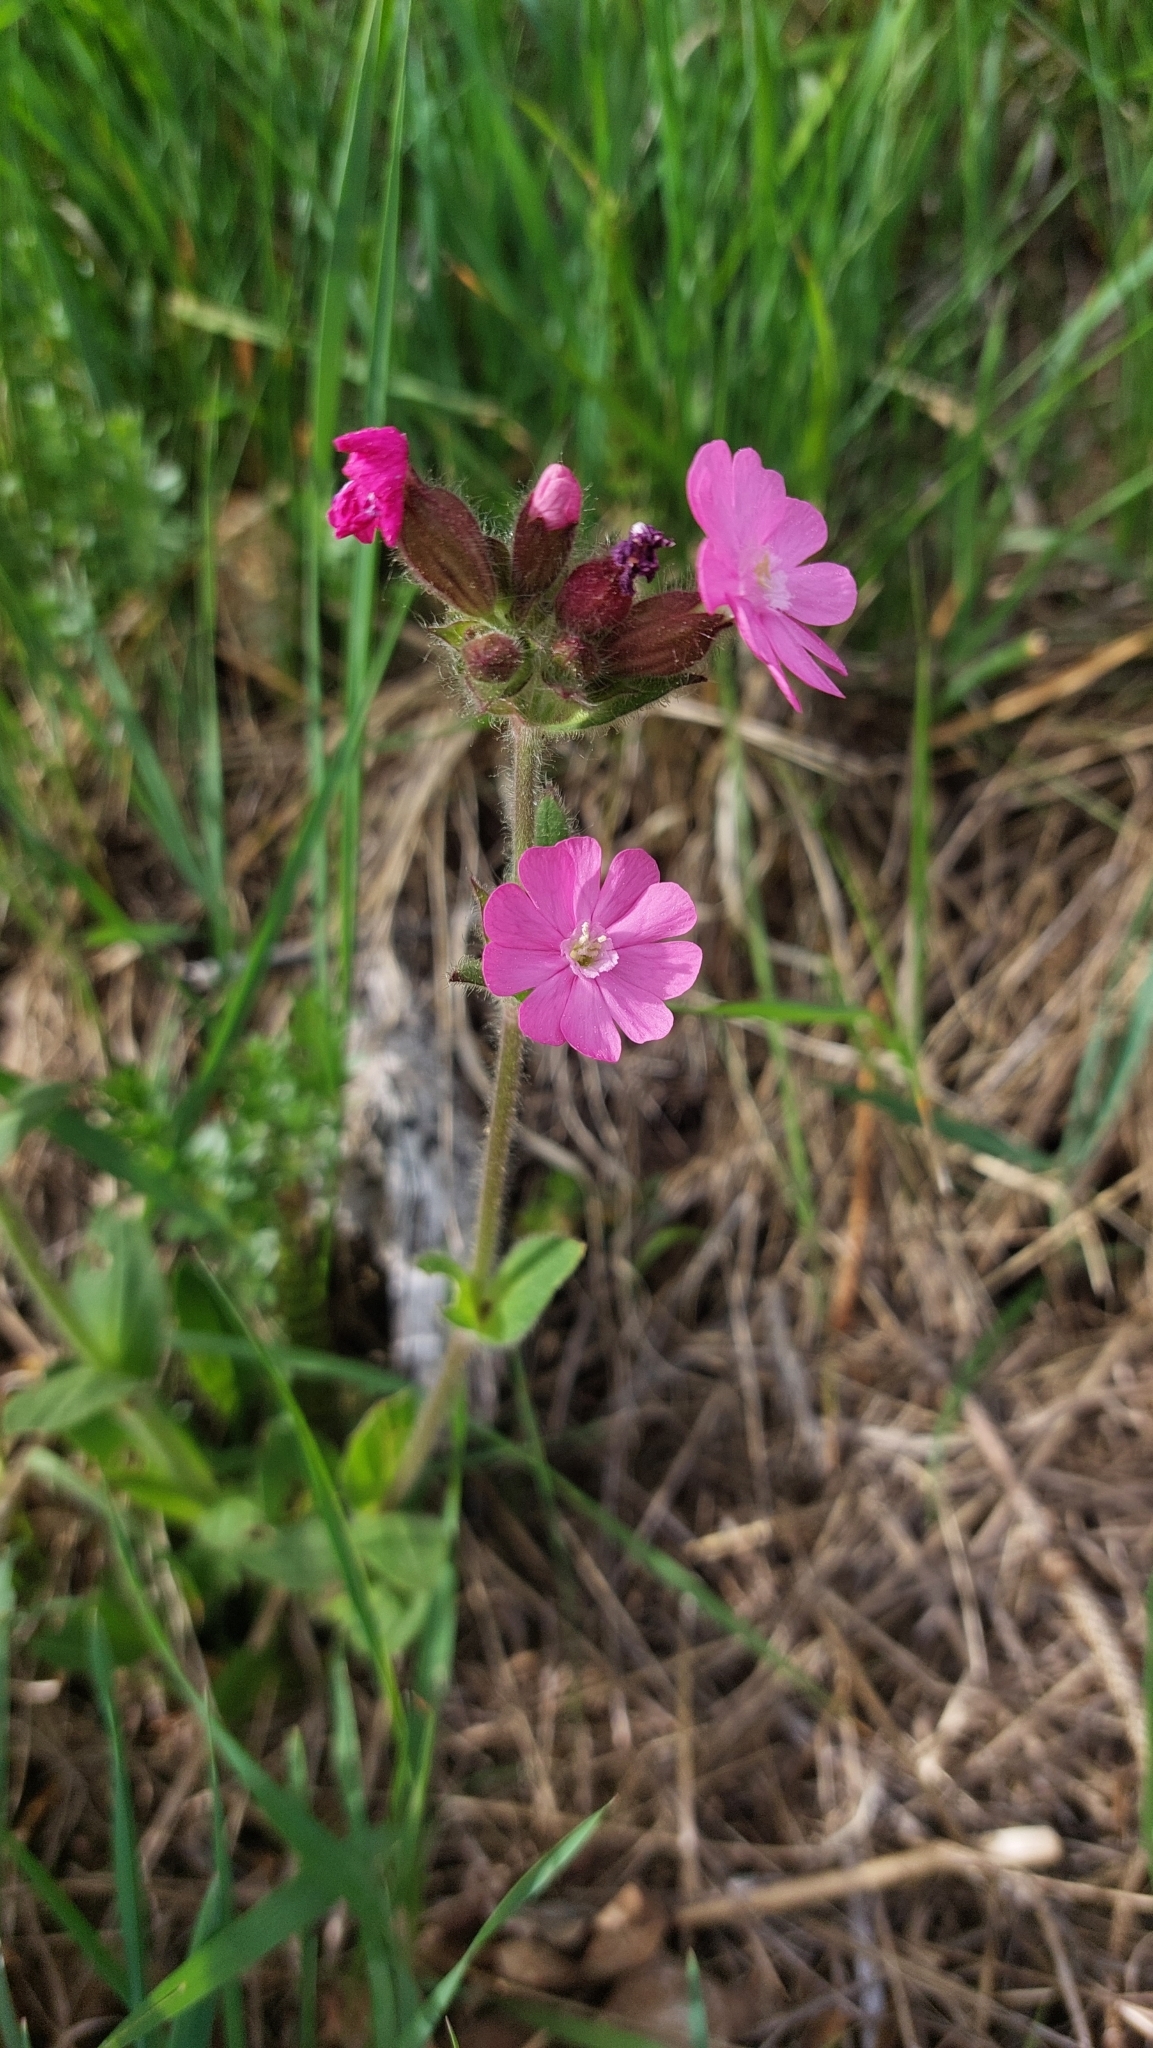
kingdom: Plantae
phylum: Tracheophyta
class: Magnoliopsida
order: Caryophyllales
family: Caryophyllaceae
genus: Silene
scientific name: Silene dioica
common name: Red campion
